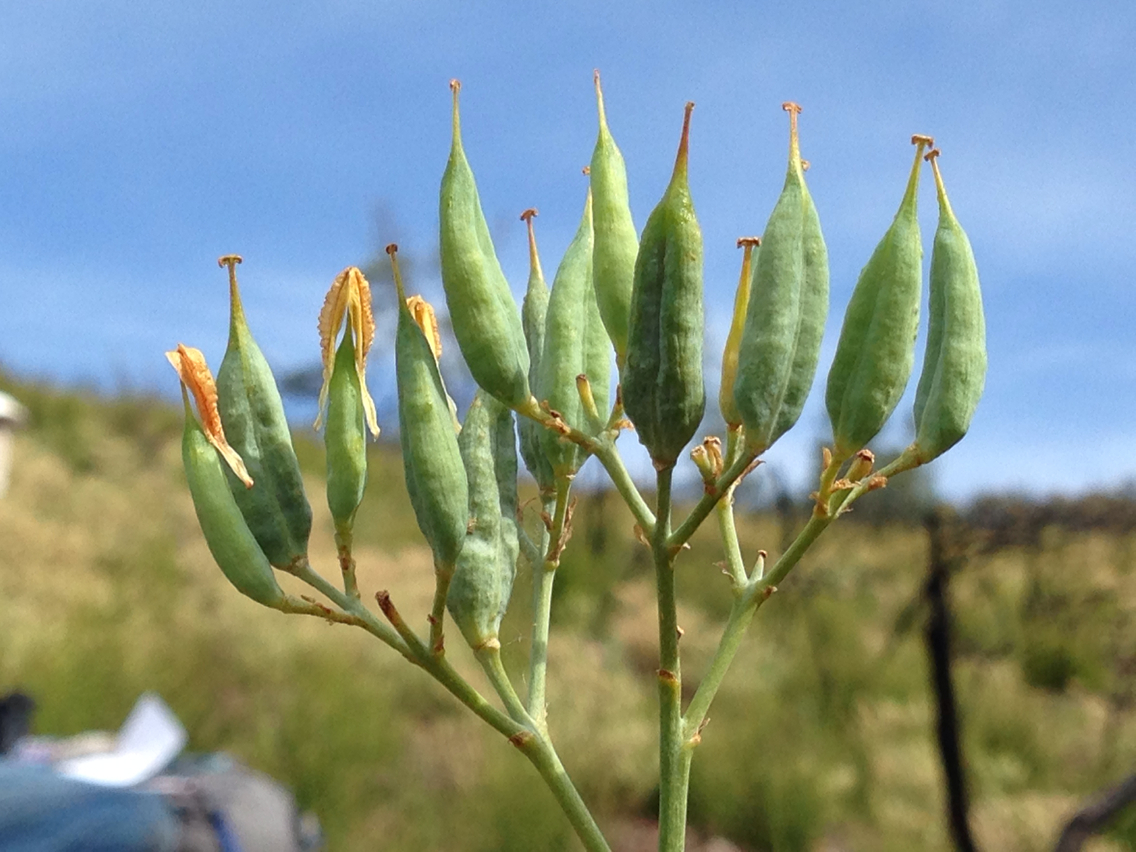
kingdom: Plantae
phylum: Tracheophyta
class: Magnoliopsida
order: Ranunculales
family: Papaveraceae
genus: Ehrendorferia
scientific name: Ehrendorferia chrysantha
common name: Golden eardrops
